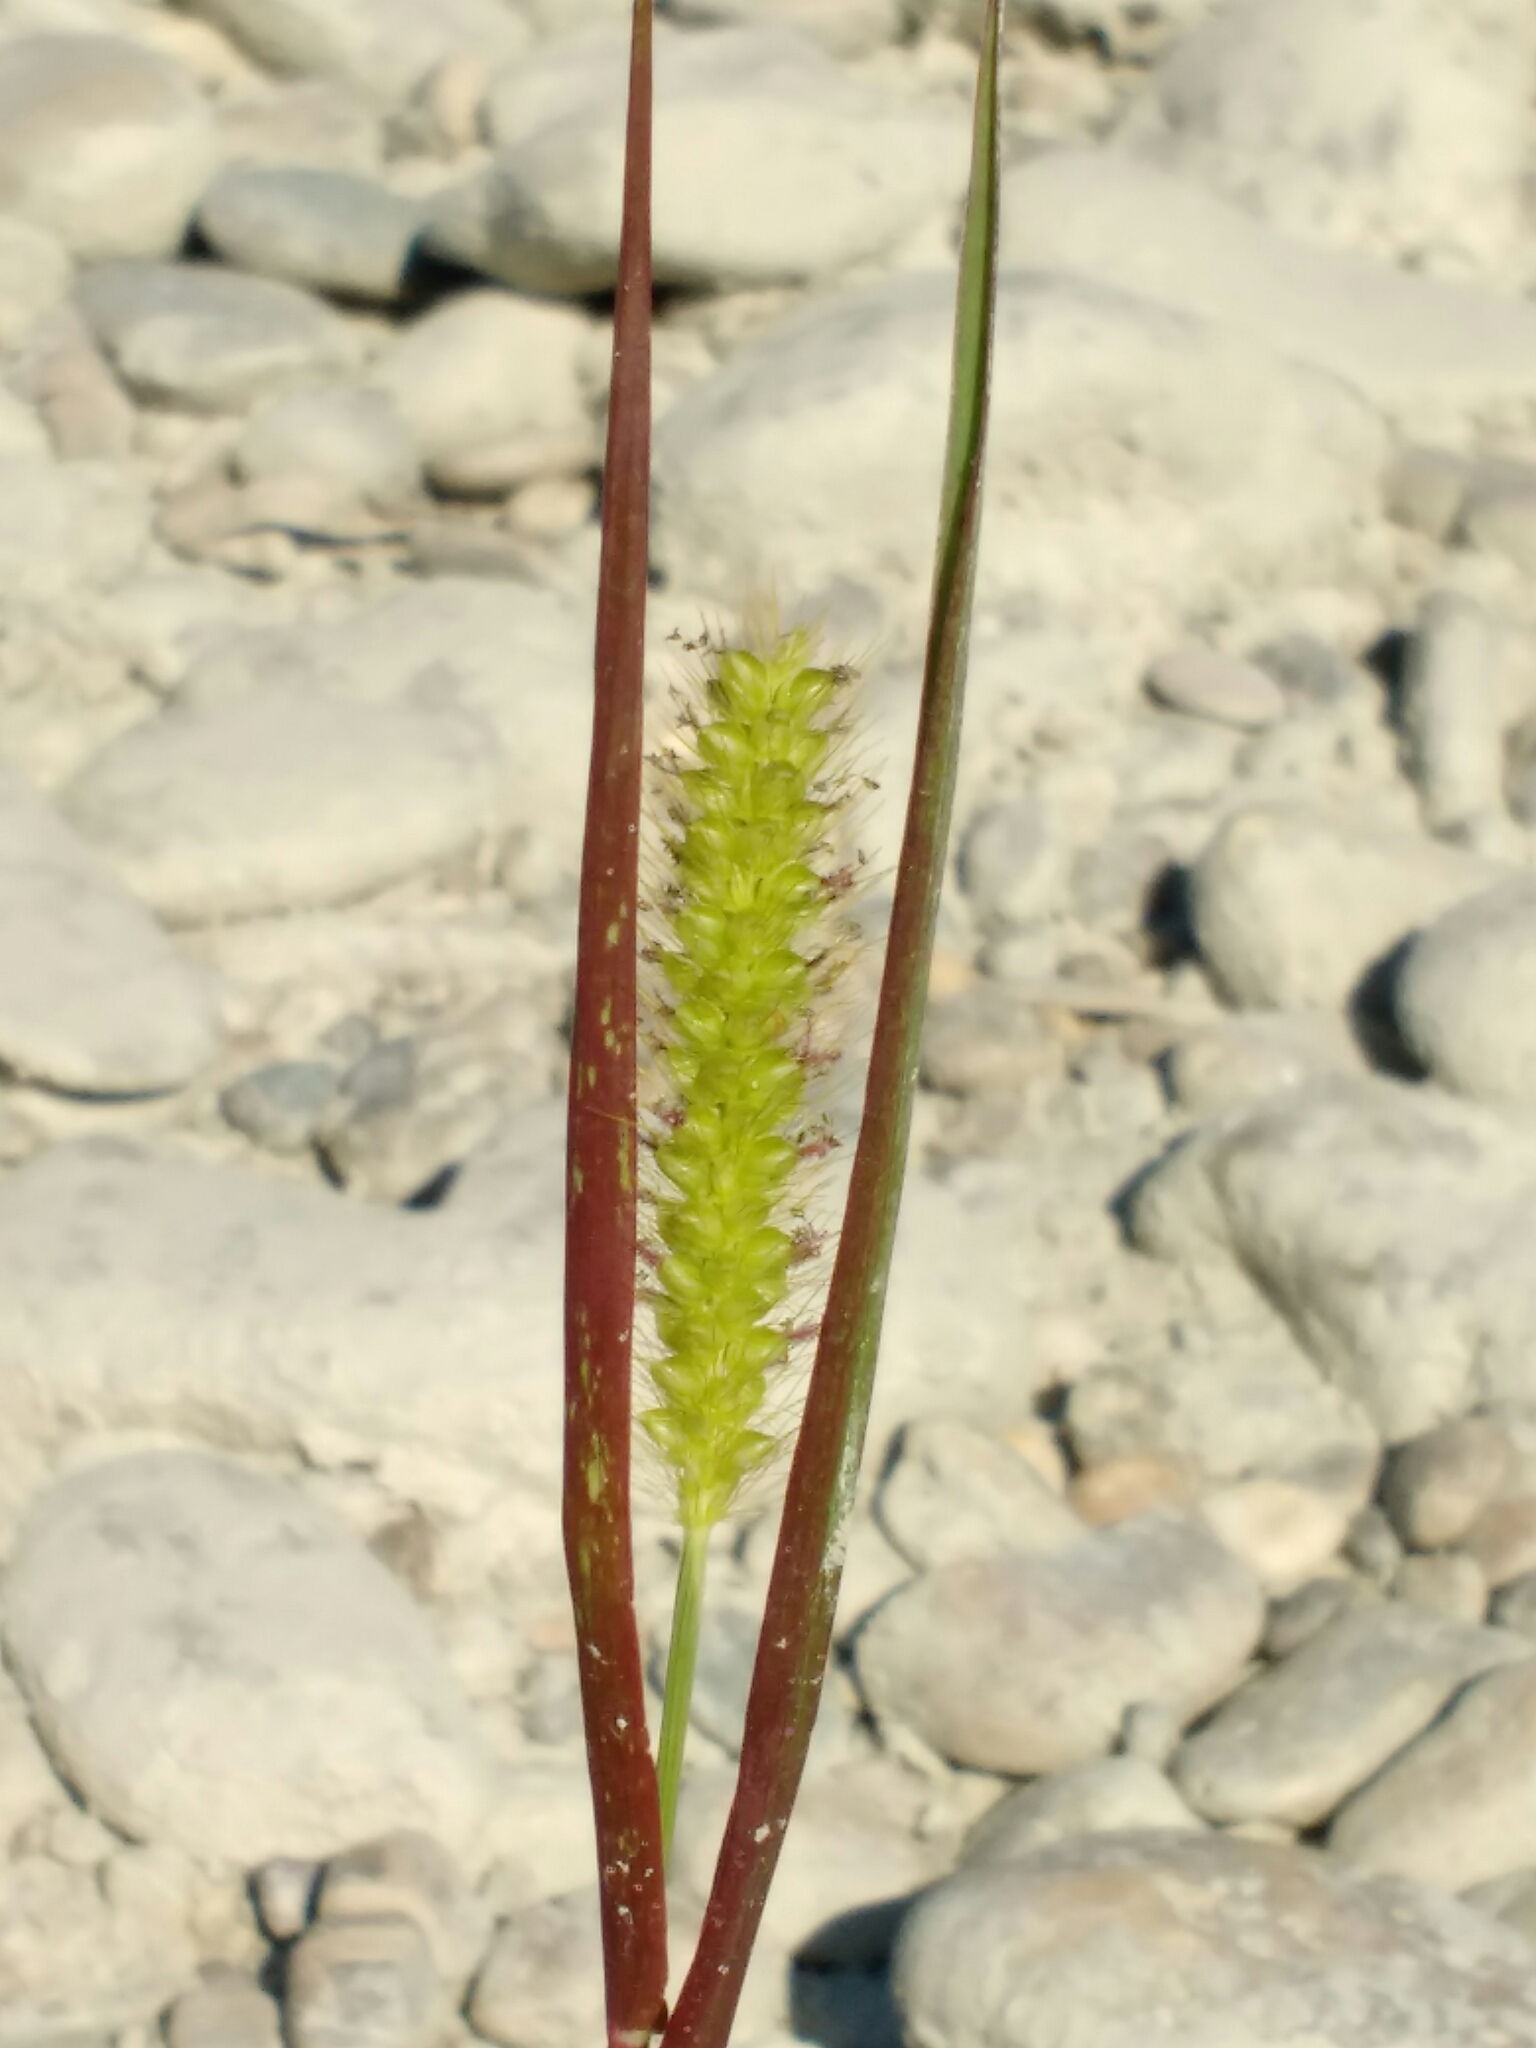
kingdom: Plantae
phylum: Tracheophyta
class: Liliopsida
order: Poales
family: Poaceae
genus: Setaria
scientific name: Setaria pumila
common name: Yellow bristle-grass
